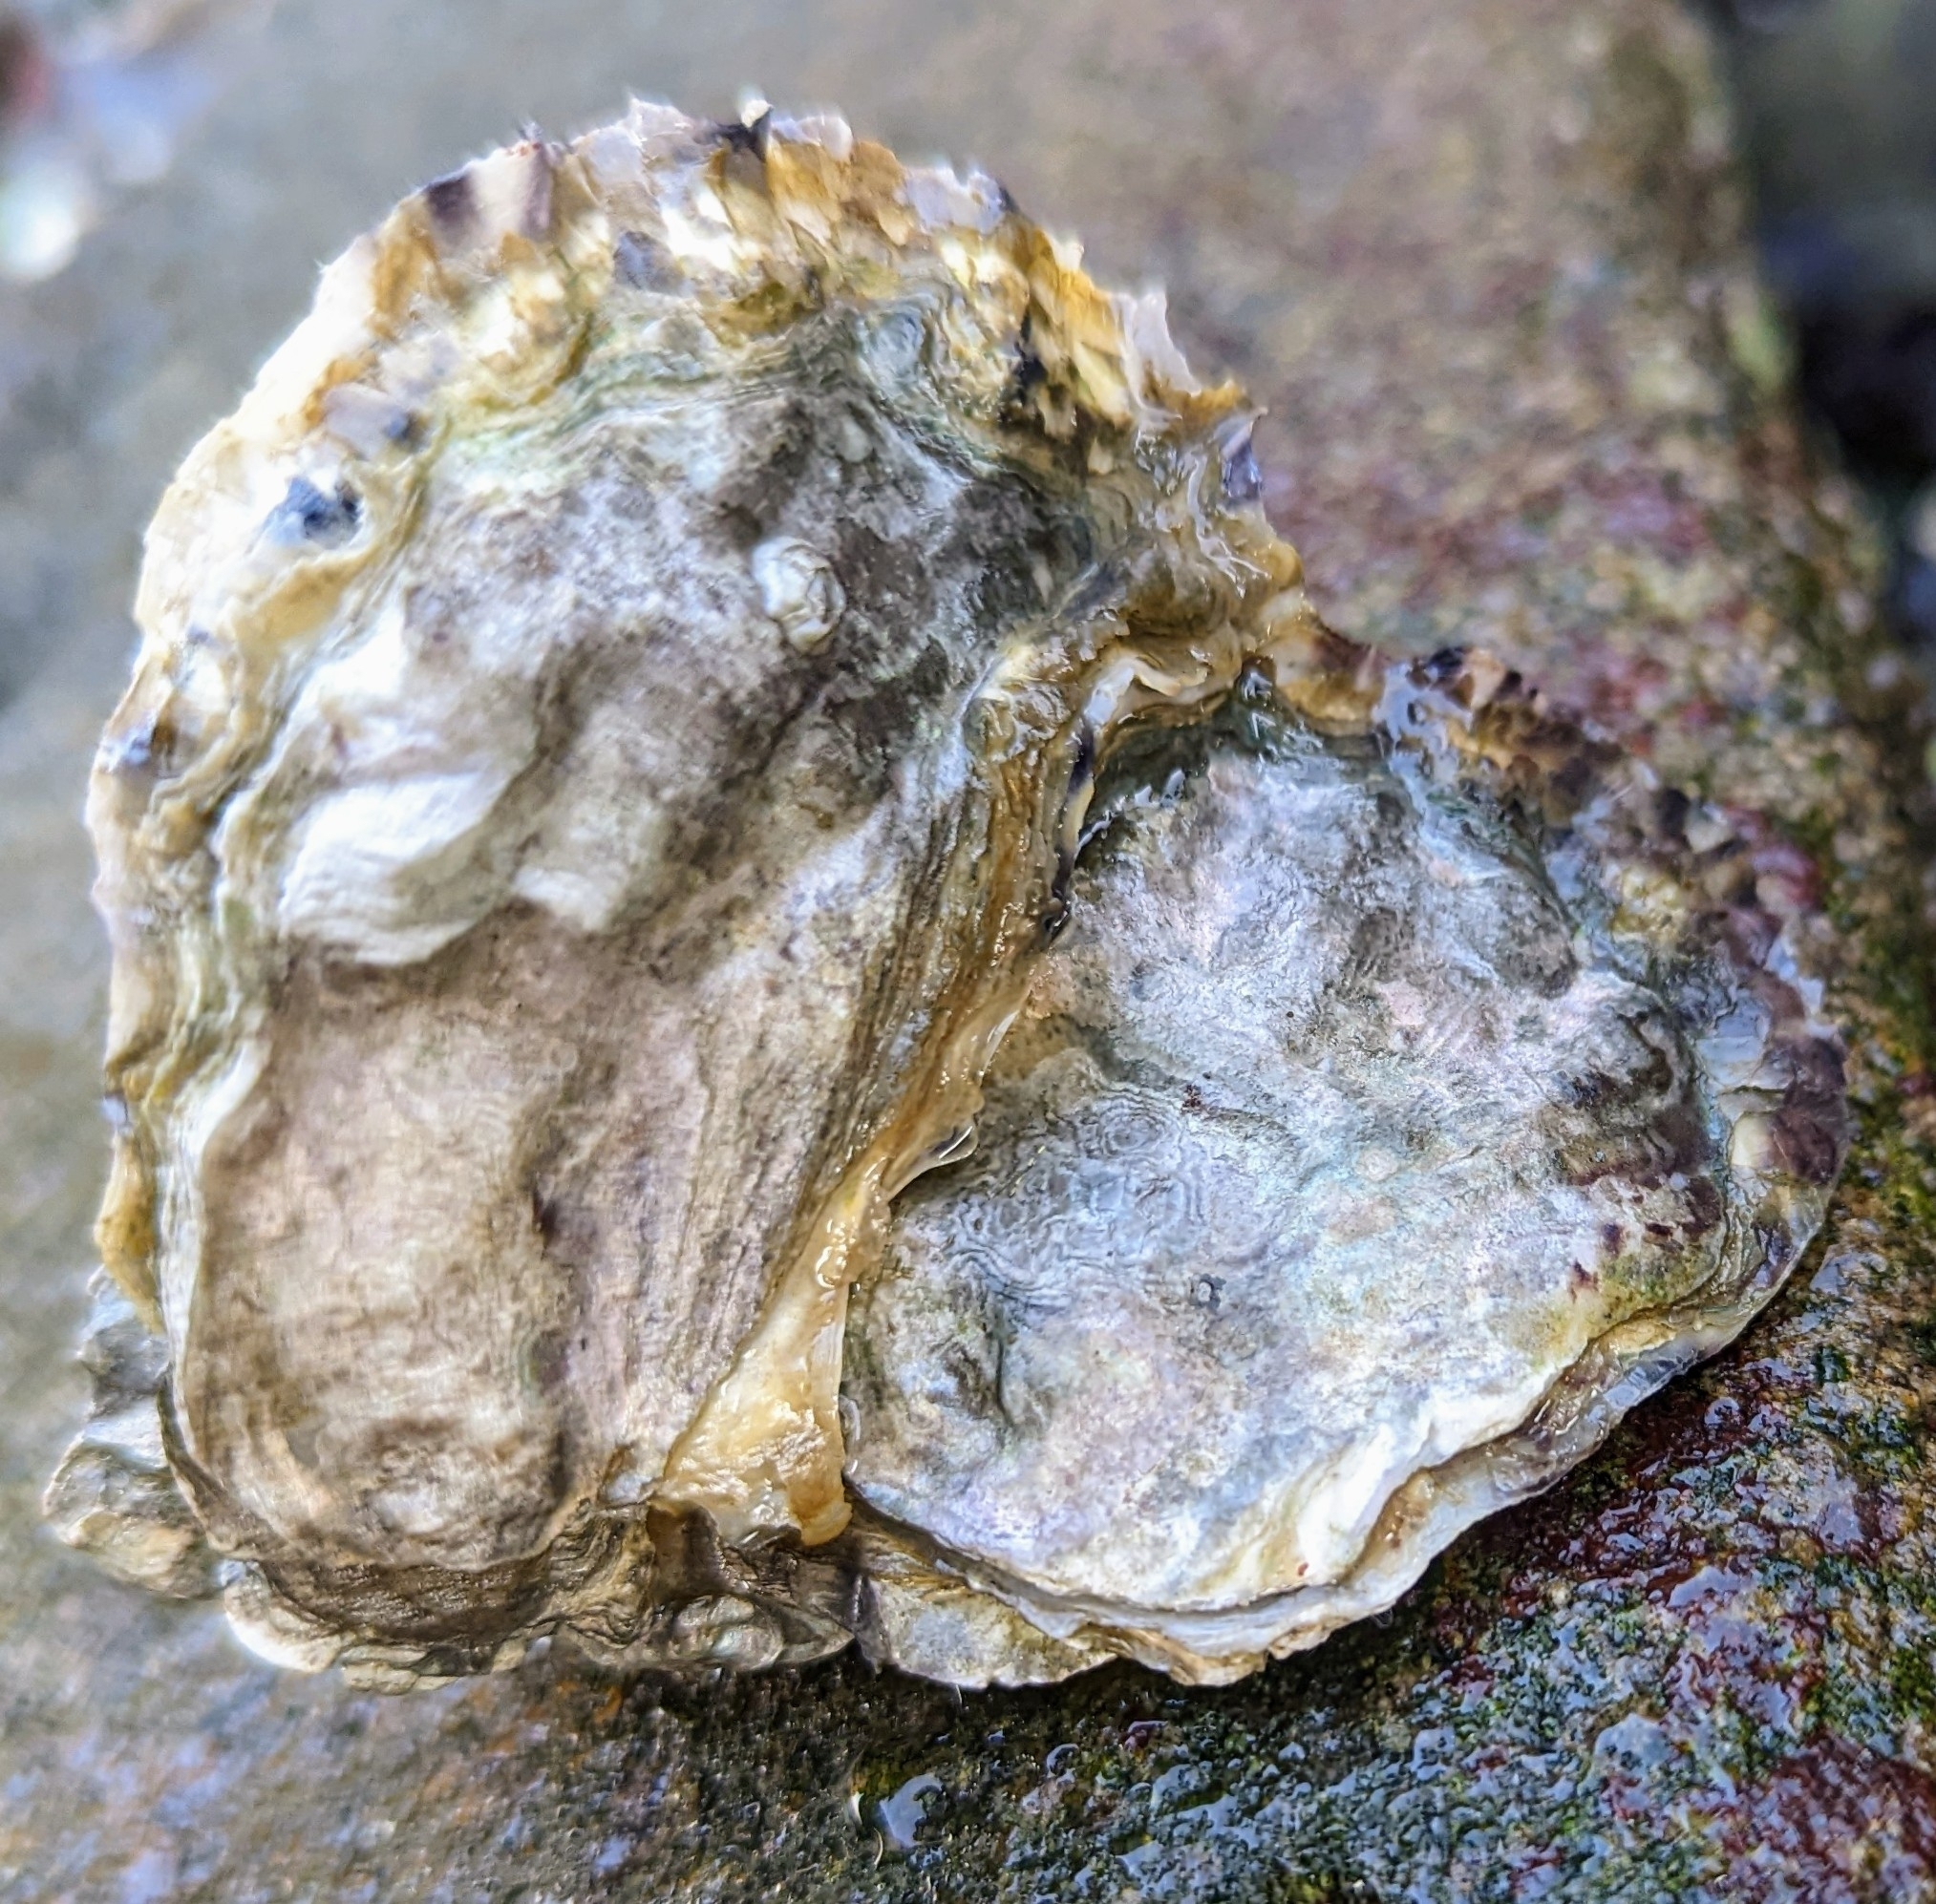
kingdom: Animalia
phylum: Mollusca
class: Bivalvia
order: Ostreida
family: Ostreidae
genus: Magallana
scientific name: Magallana gigas
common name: Pacific oyster
